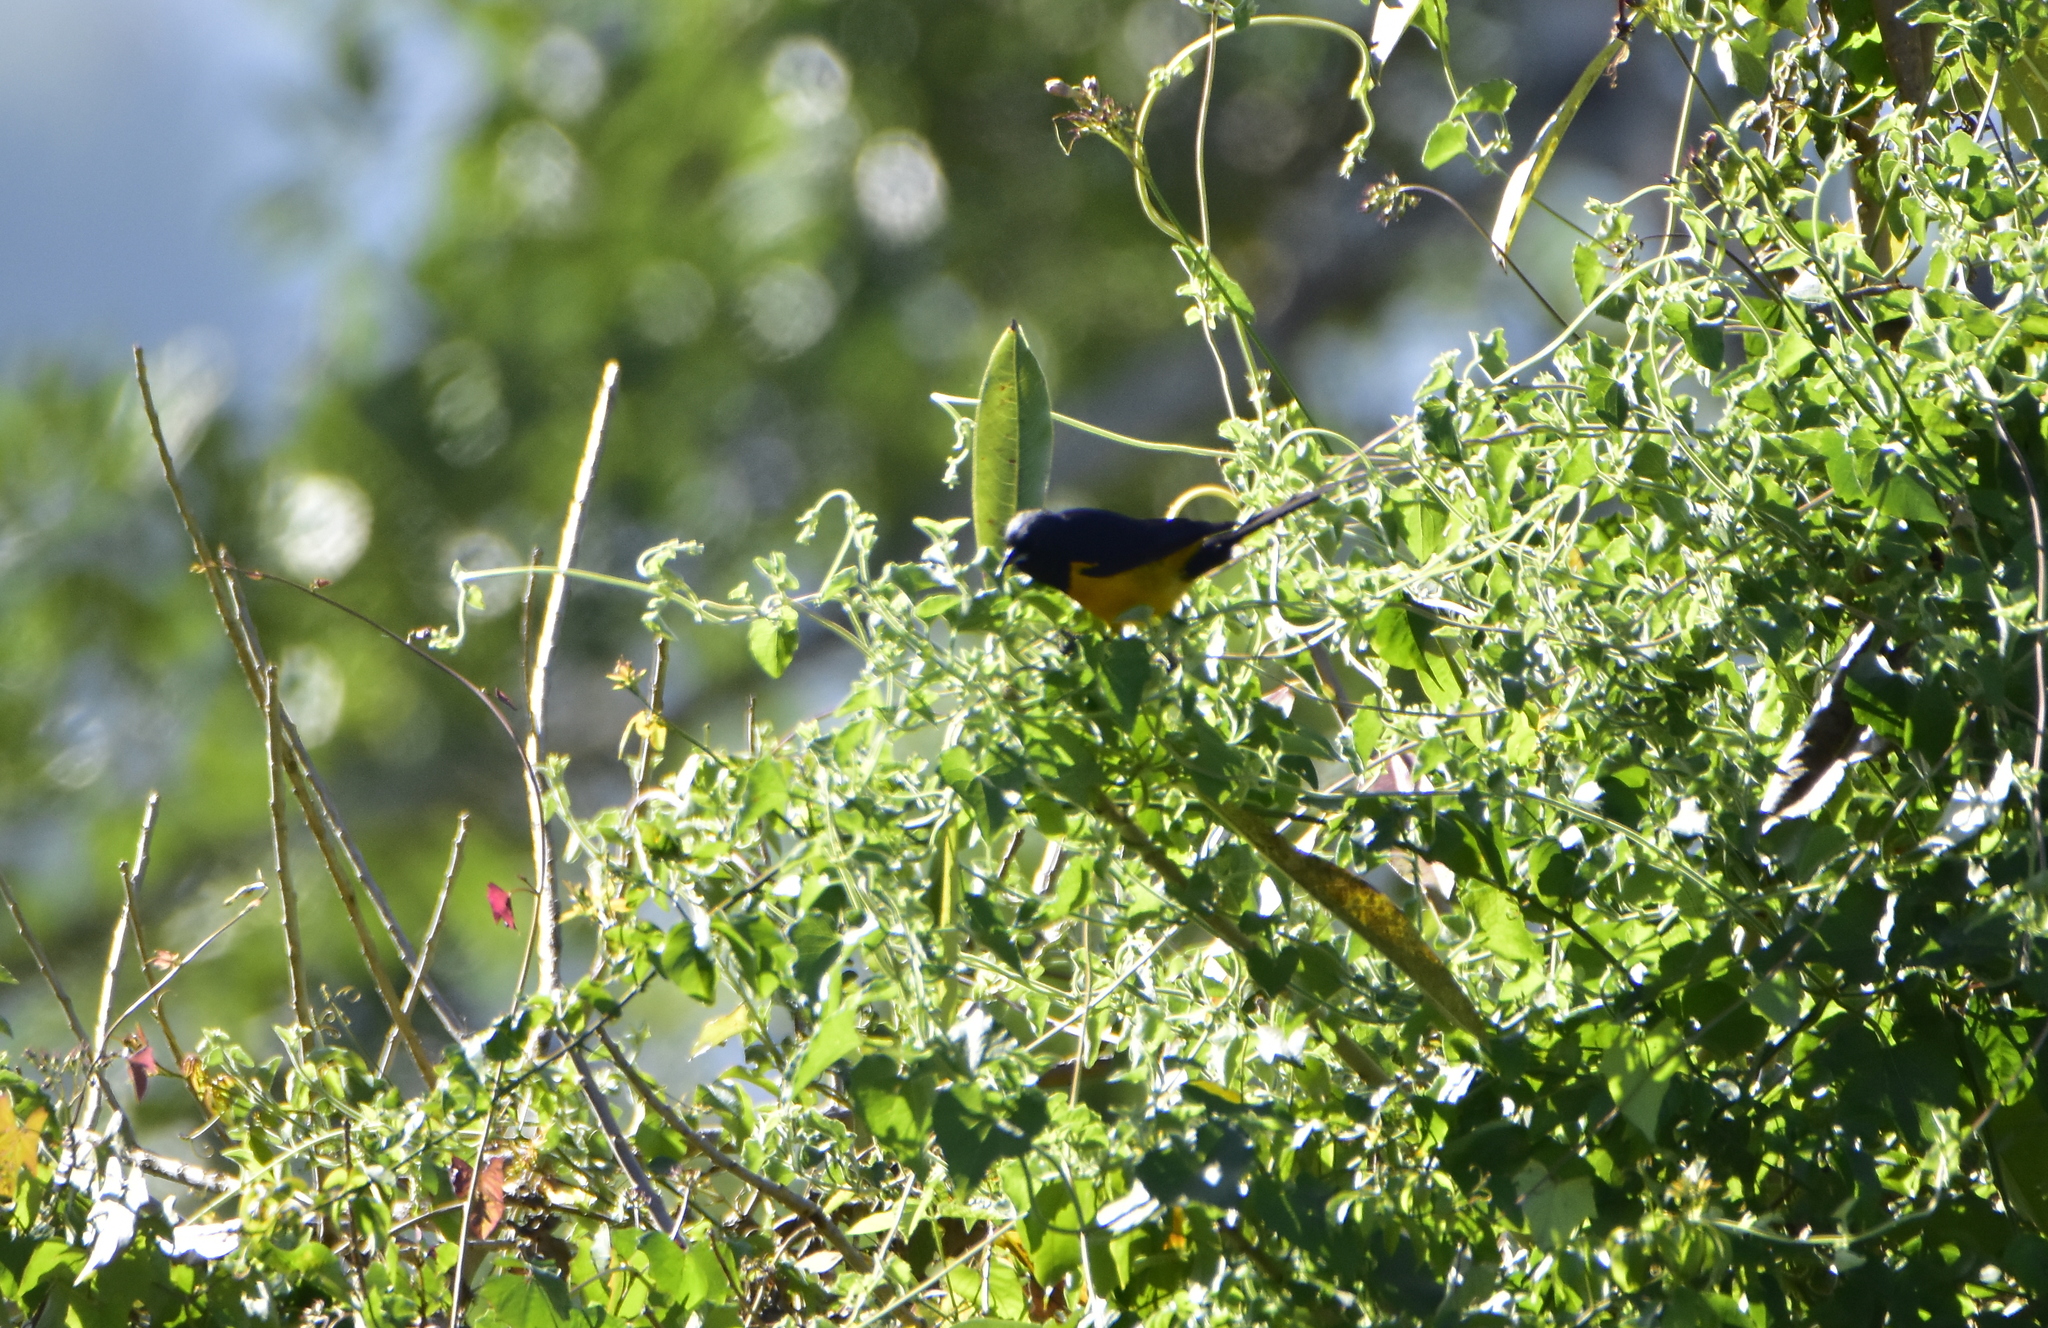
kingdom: Animalia
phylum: Chordata
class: Aves
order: Passeriformes
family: Icteridae
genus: Icterus
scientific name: Icterus wagleri
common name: Black-vented oriole
